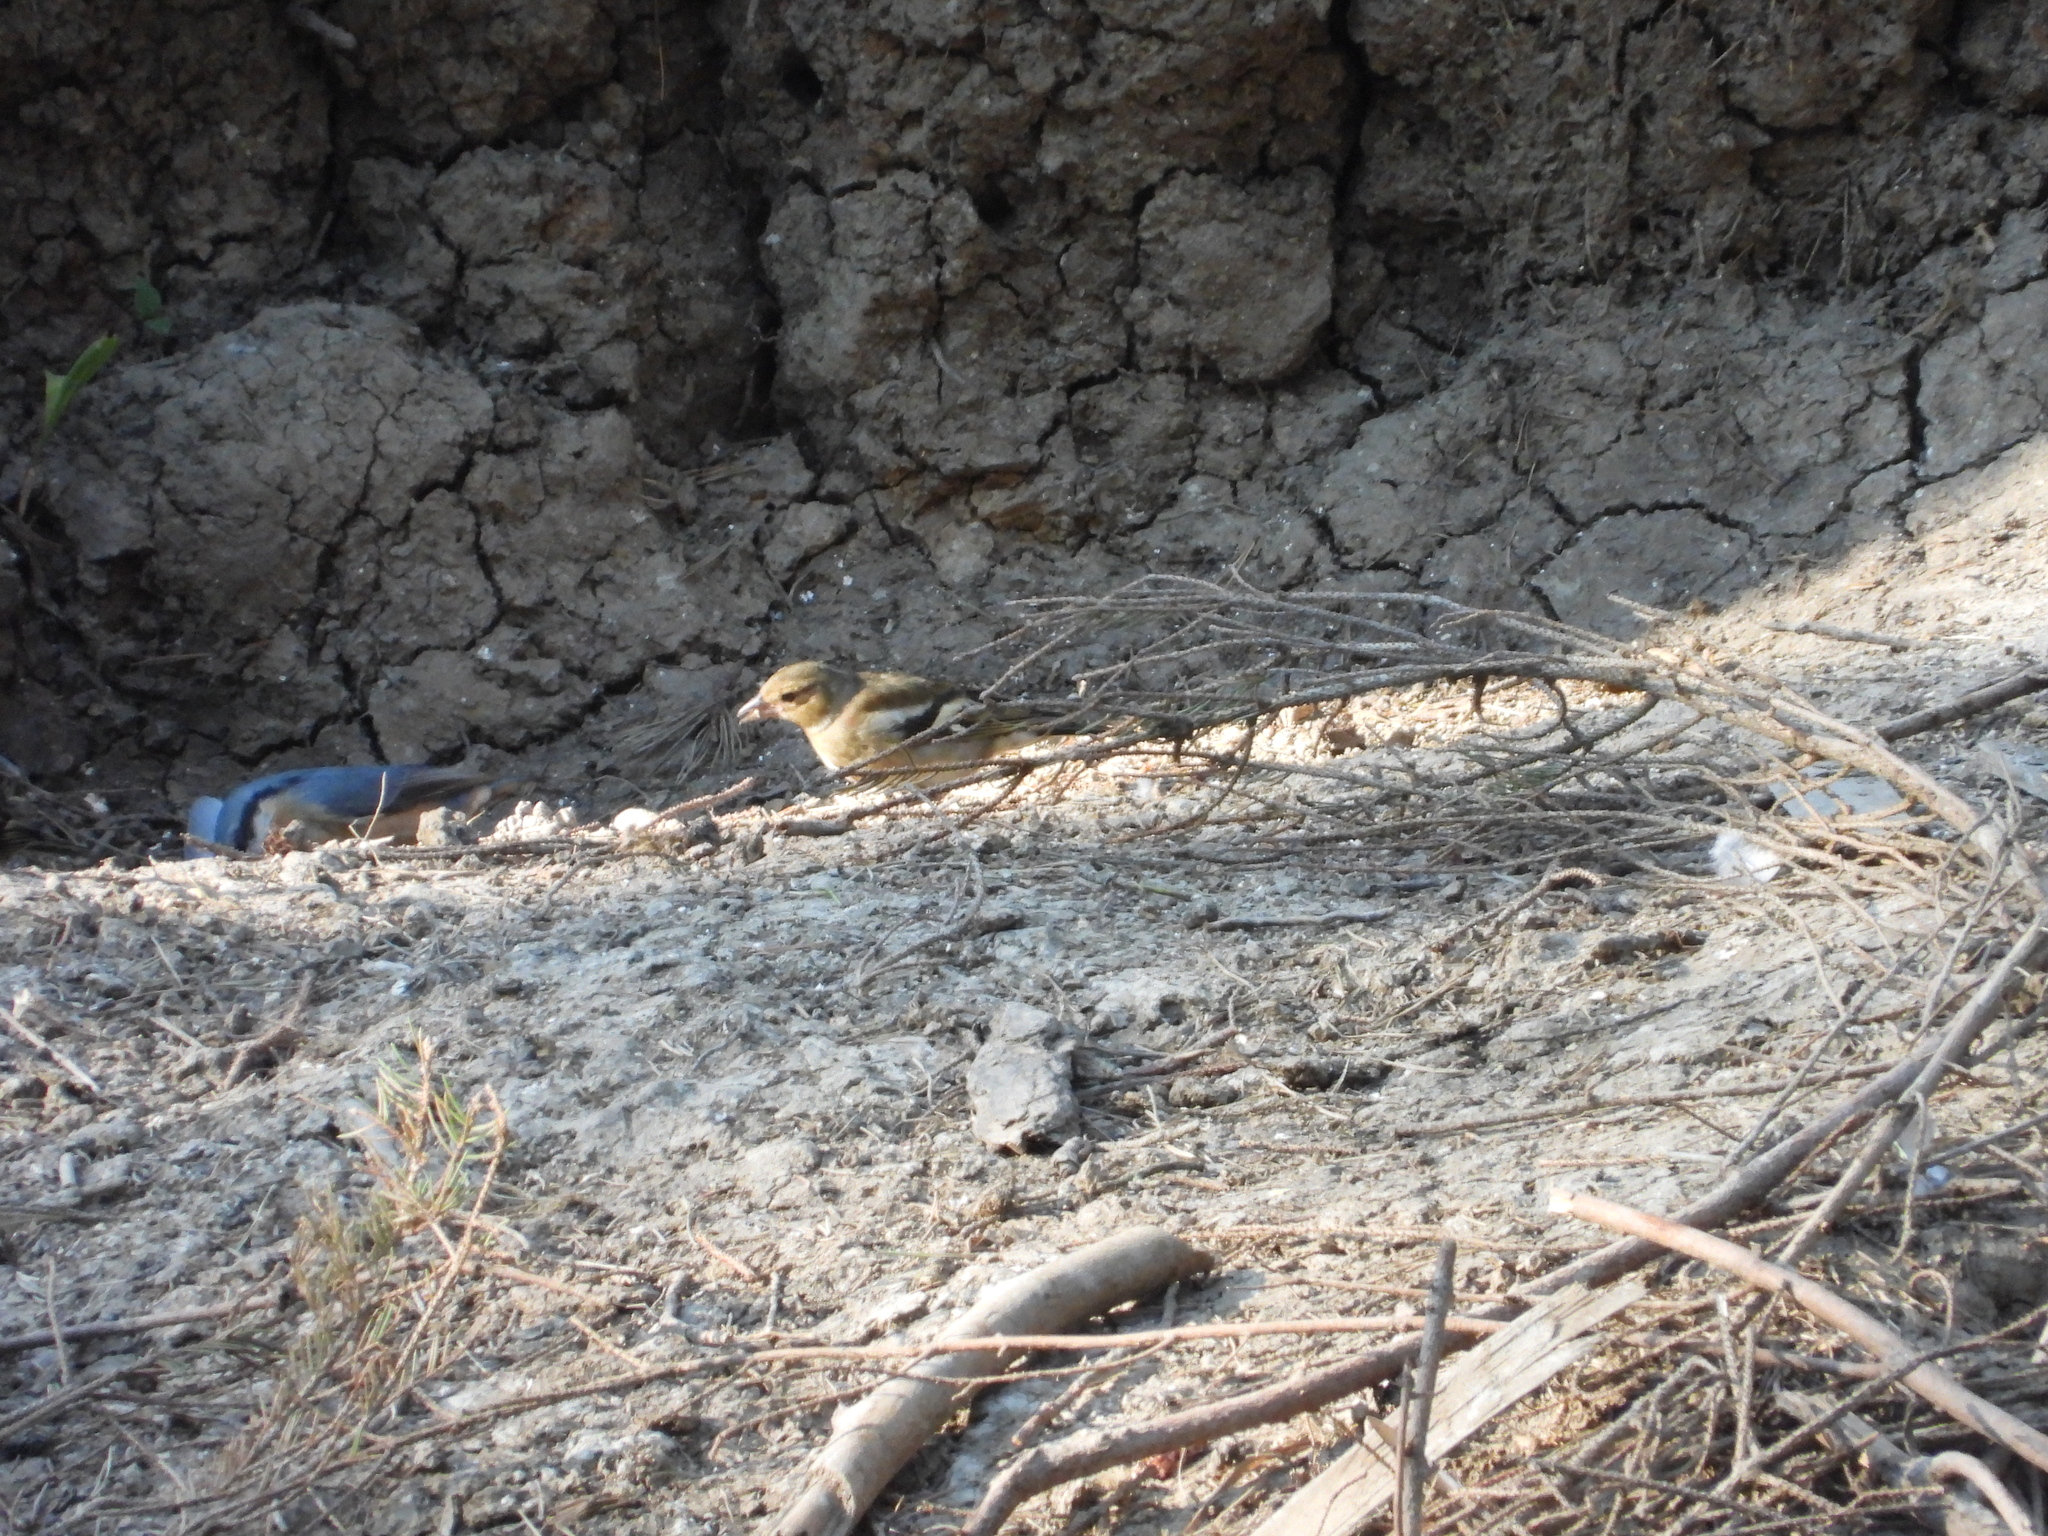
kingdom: Animalia
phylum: Chordata
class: Aves
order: Passeriformes
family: Fringillidae
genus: Fringilla
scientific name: Fringilla coelebs
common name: Common chaffinch
